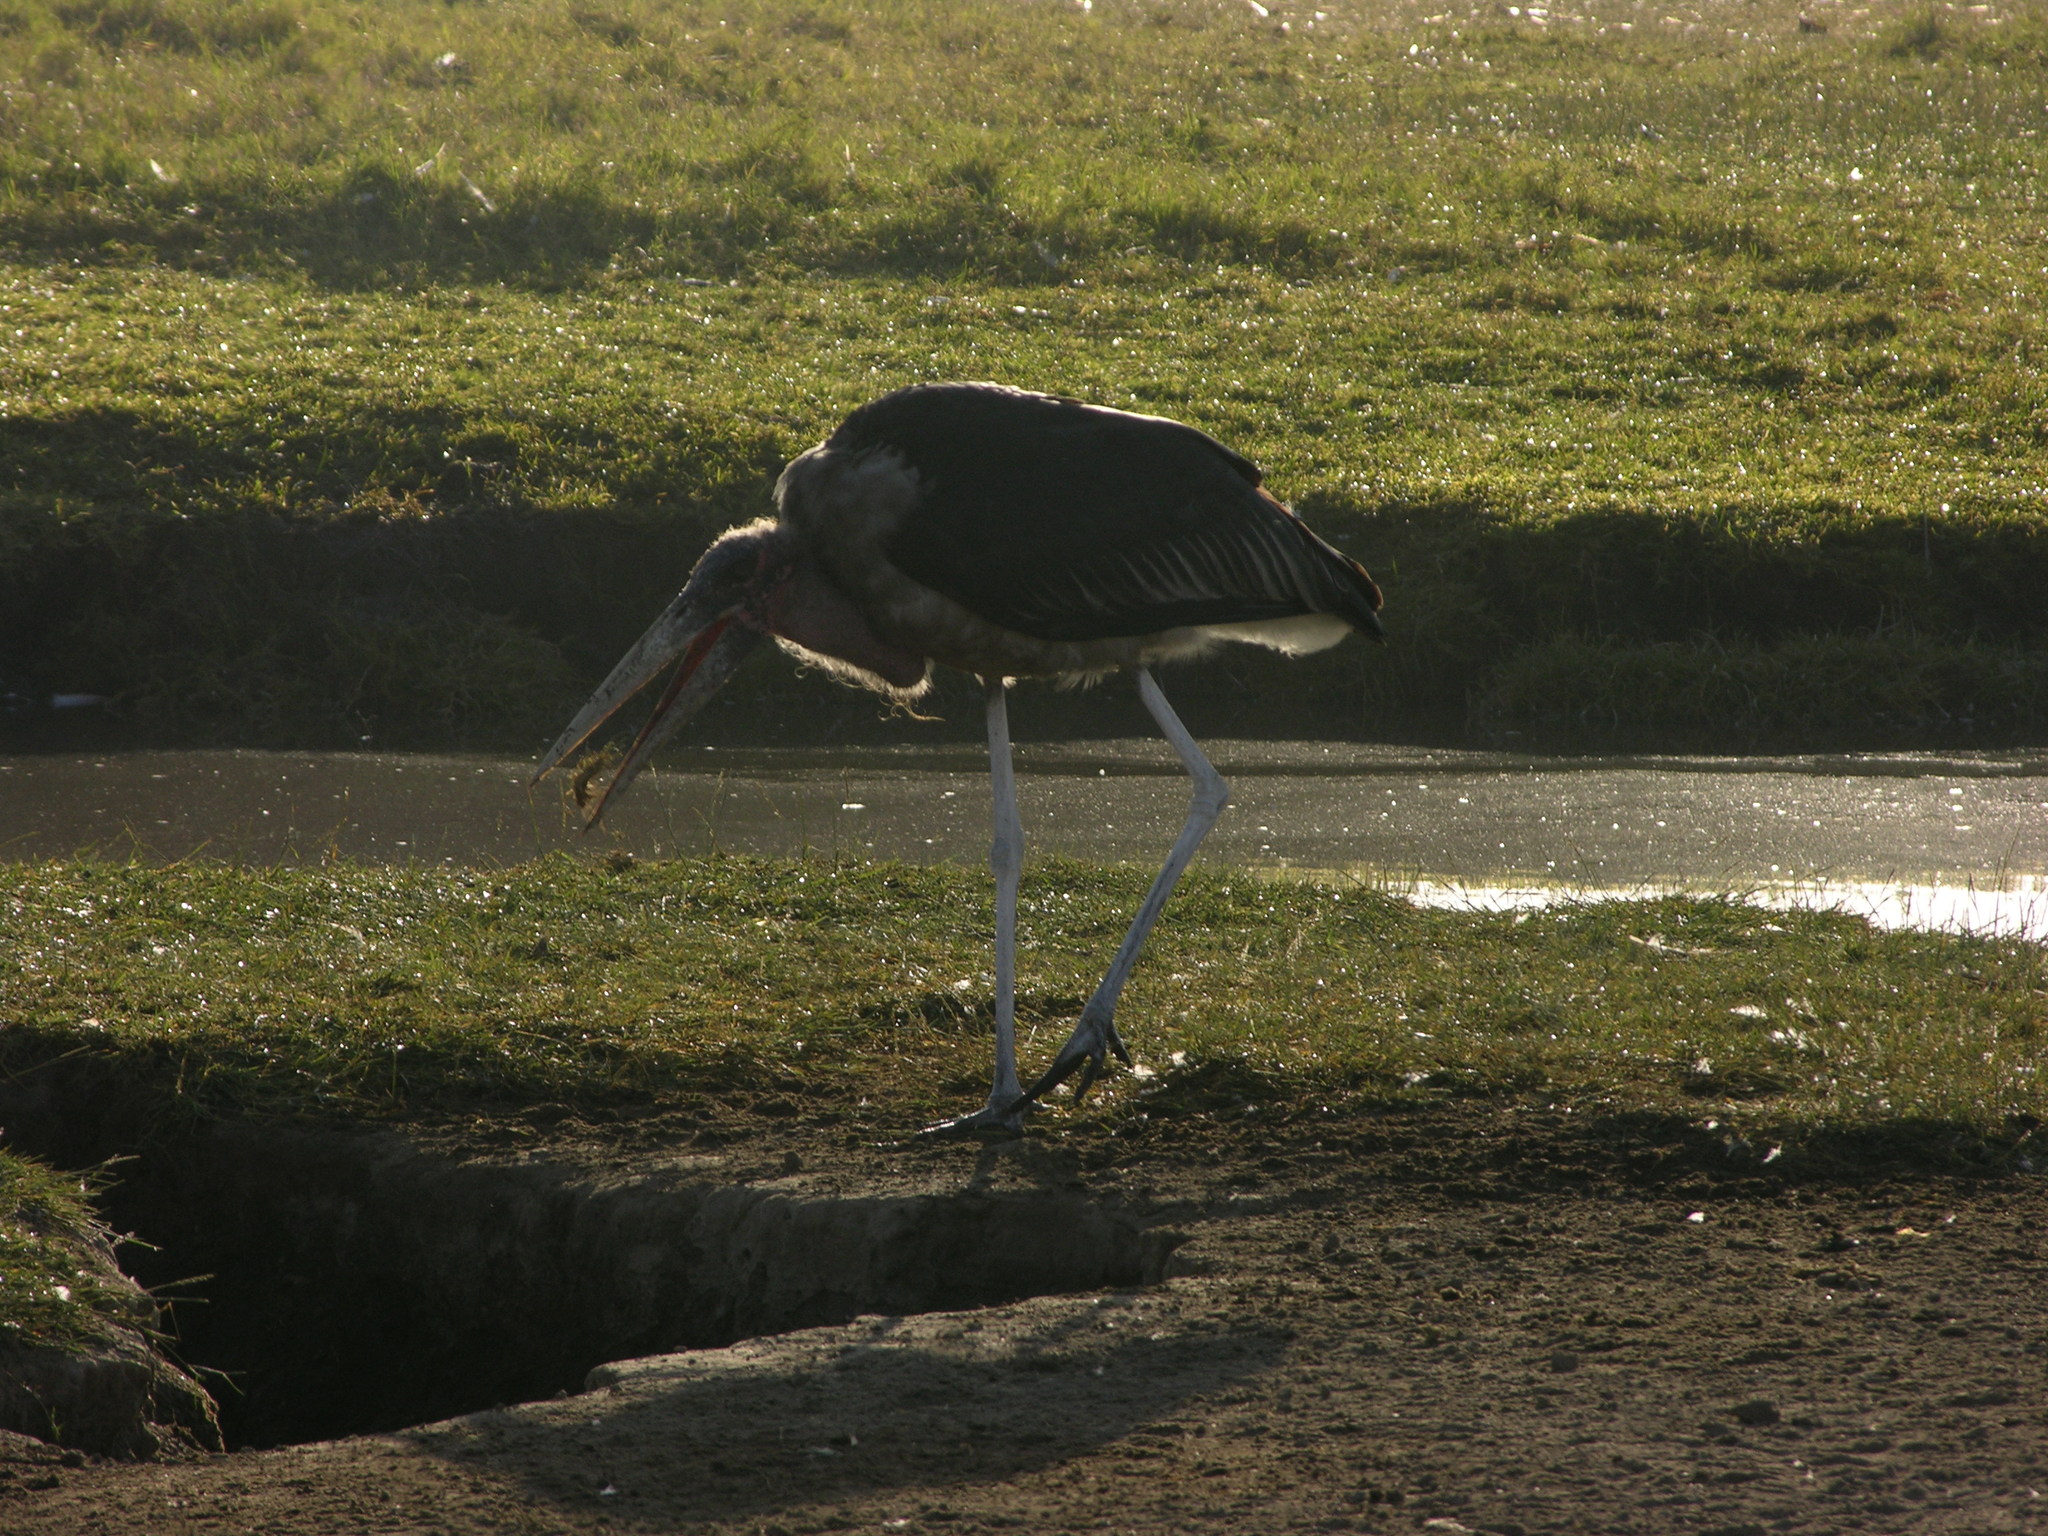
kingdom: Animalia
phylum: Chordata
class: Aves
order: Ciconiiformes
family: Ciconiidae
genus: Leptoptilos
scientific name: Leptoptilos crumenifer
